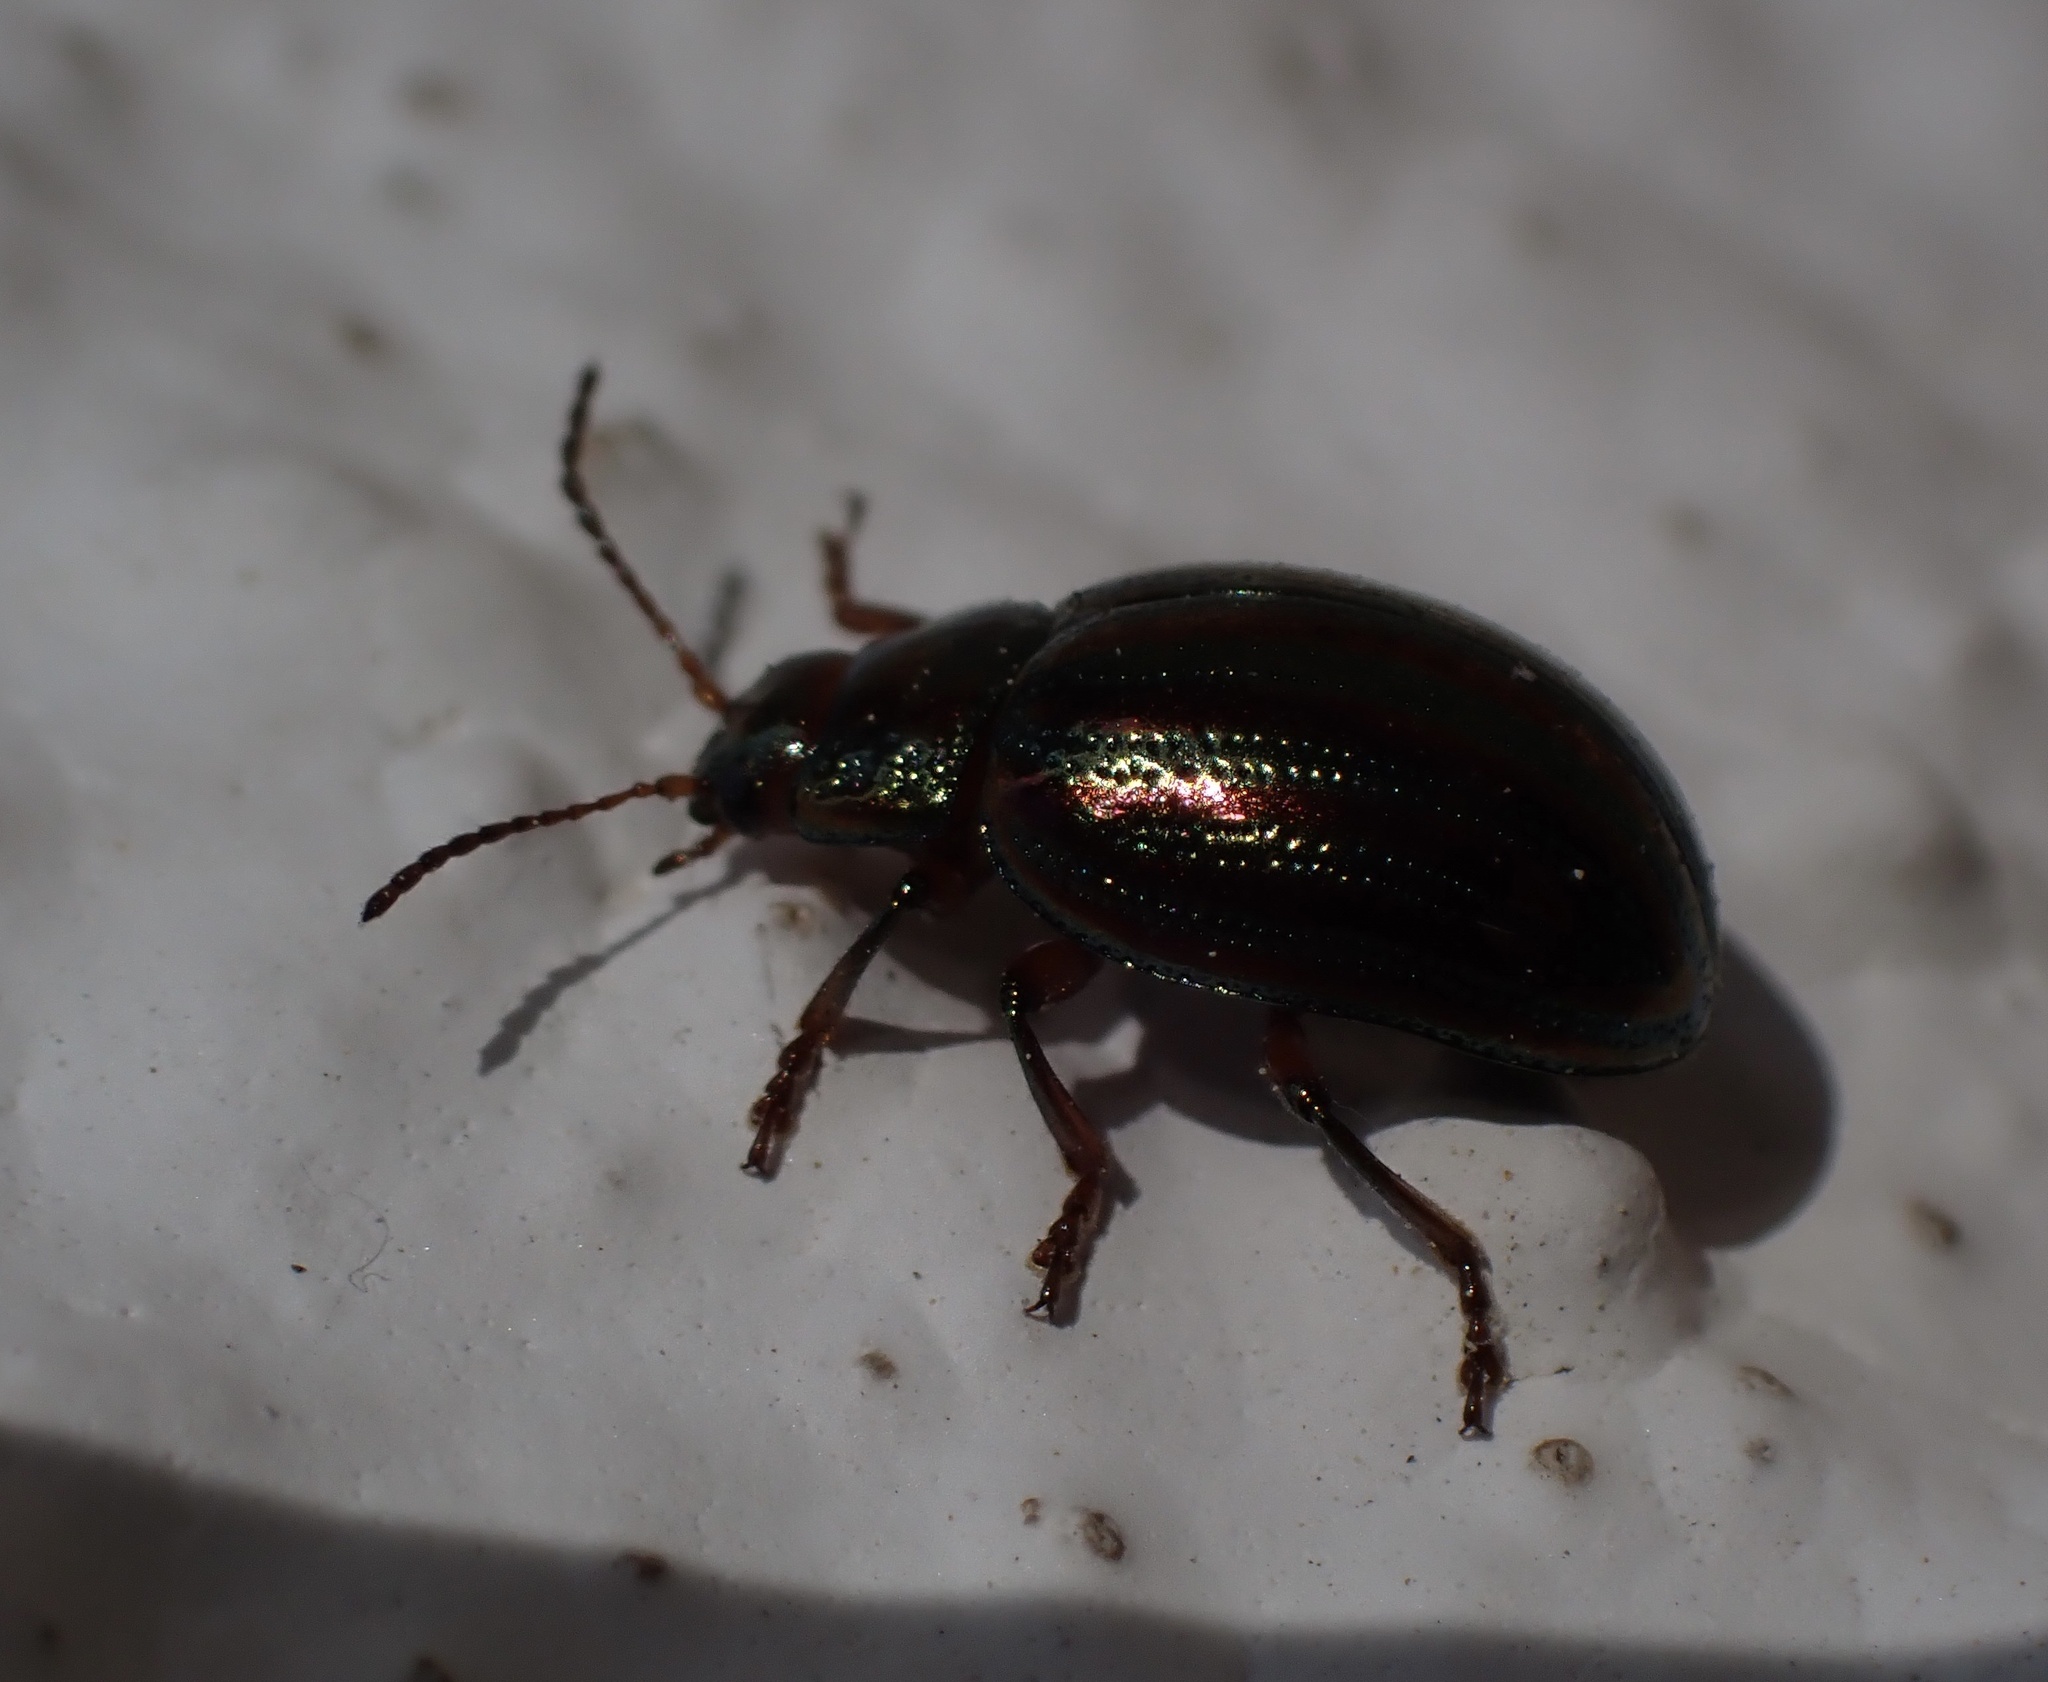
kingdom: Animalia
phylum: Arthropoda
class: Insecta
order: Coleoptera
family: Chrysomelidae
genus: Chrysolina
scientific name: Chrysolina americana
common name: Rosemary beetle
